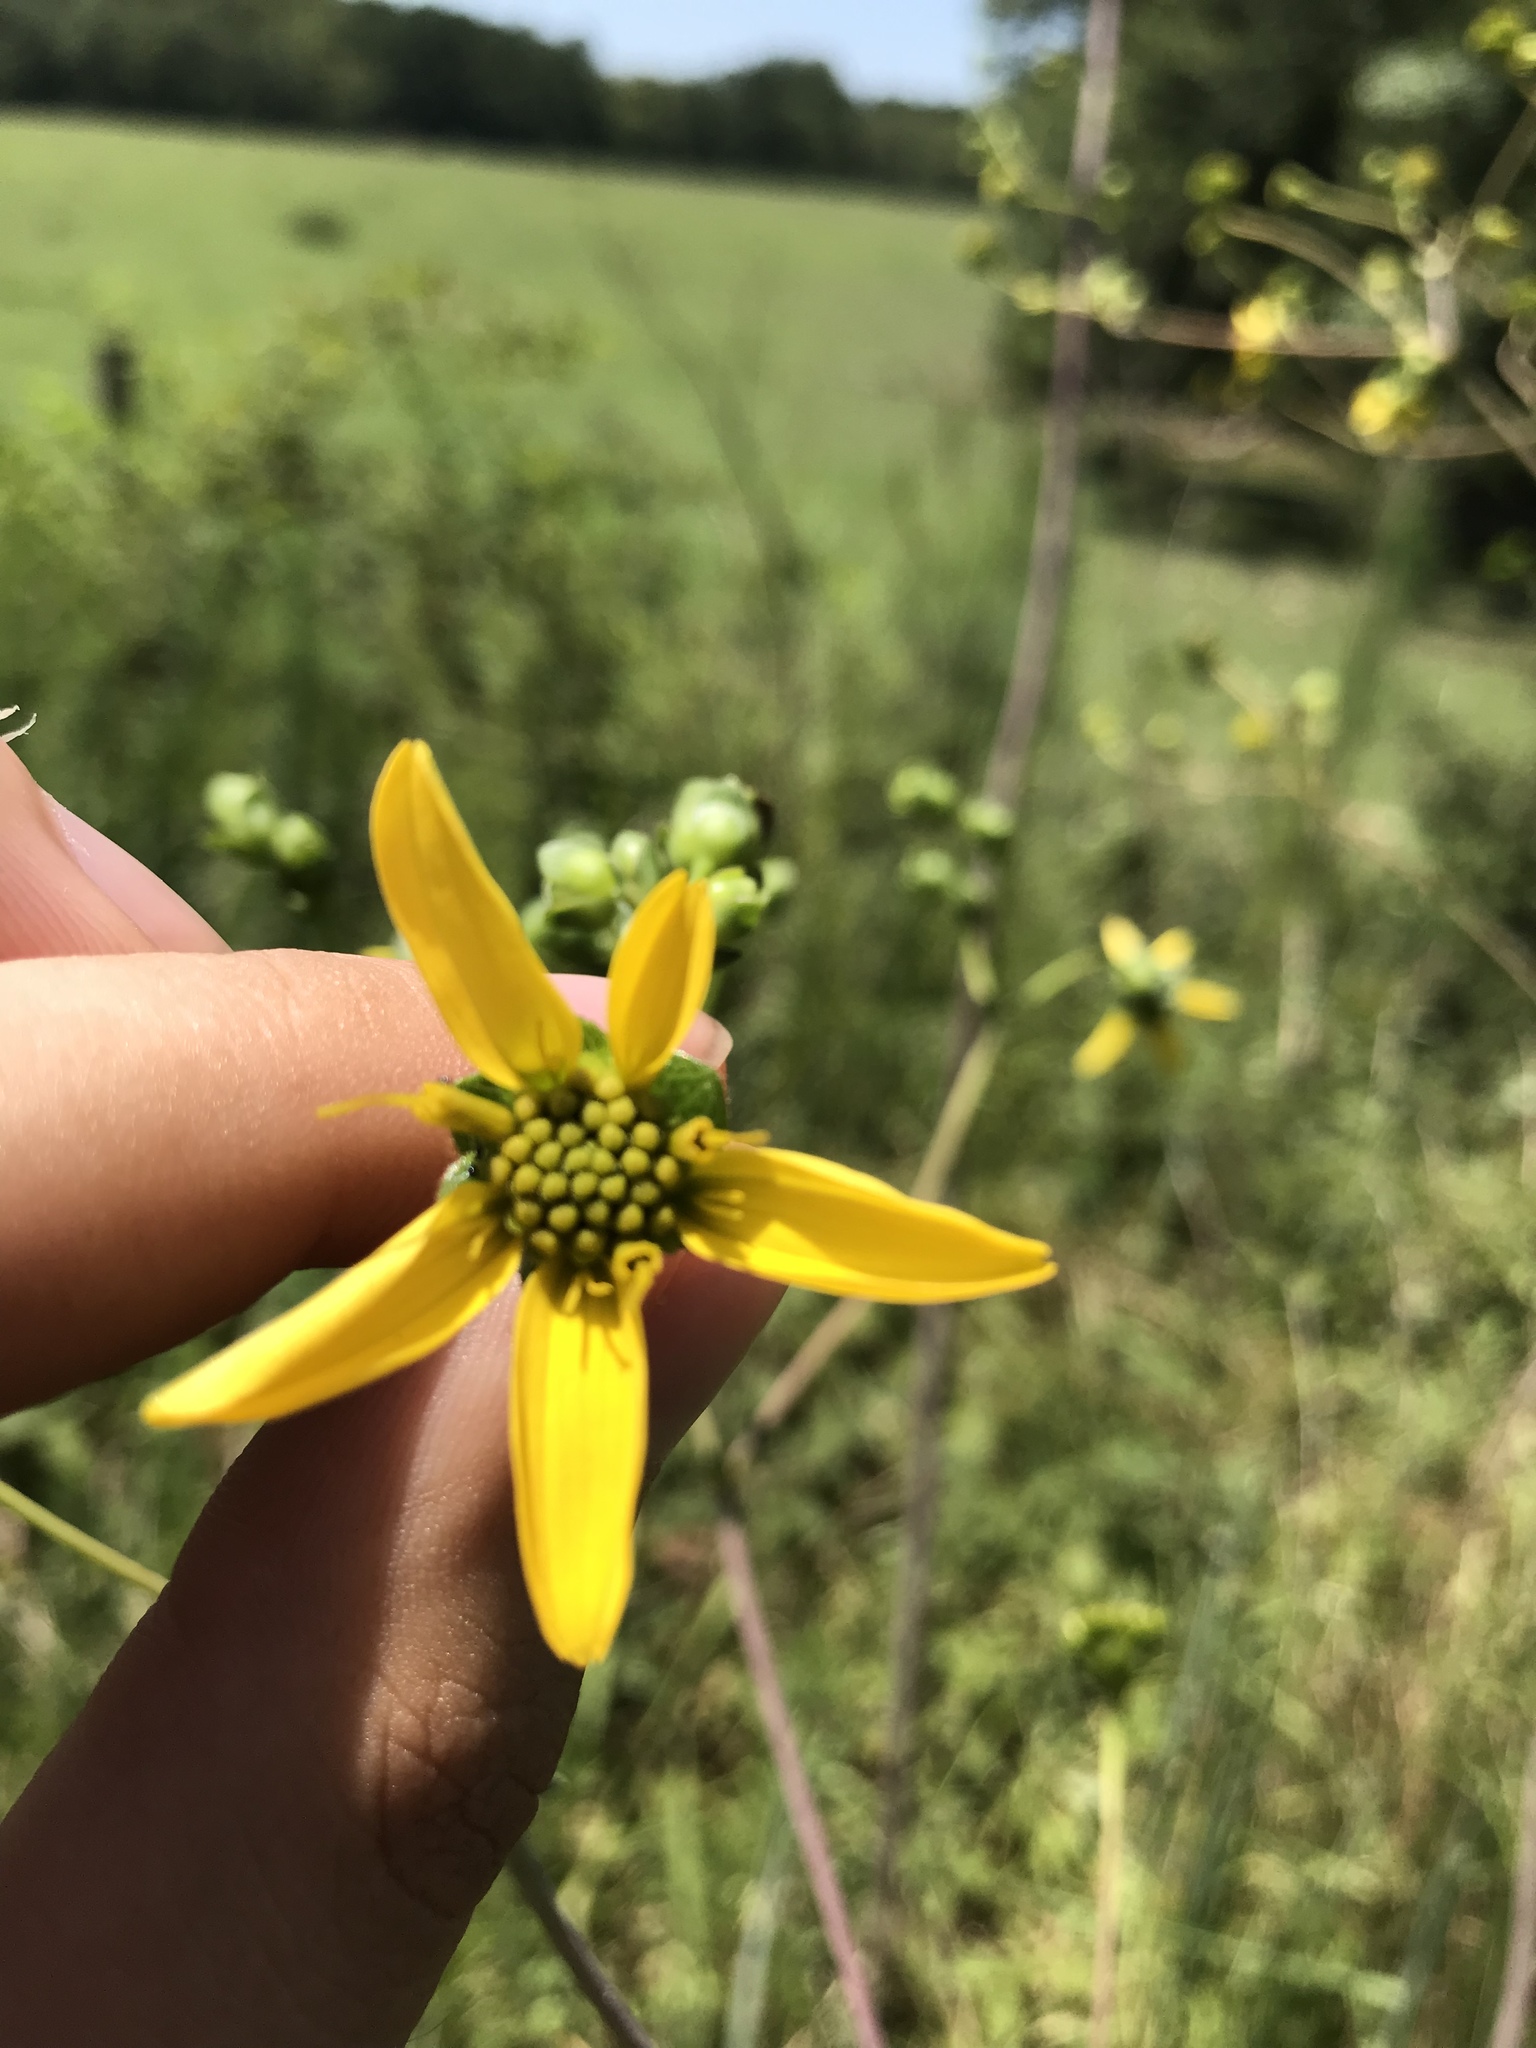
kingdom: Plantae
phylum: Tracheophyta
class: Magnoliopsida
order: Asterales
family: Asteraceae
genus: Silphium
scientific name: Silphium compositum
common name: Lesser basal-leaf rosinweed
